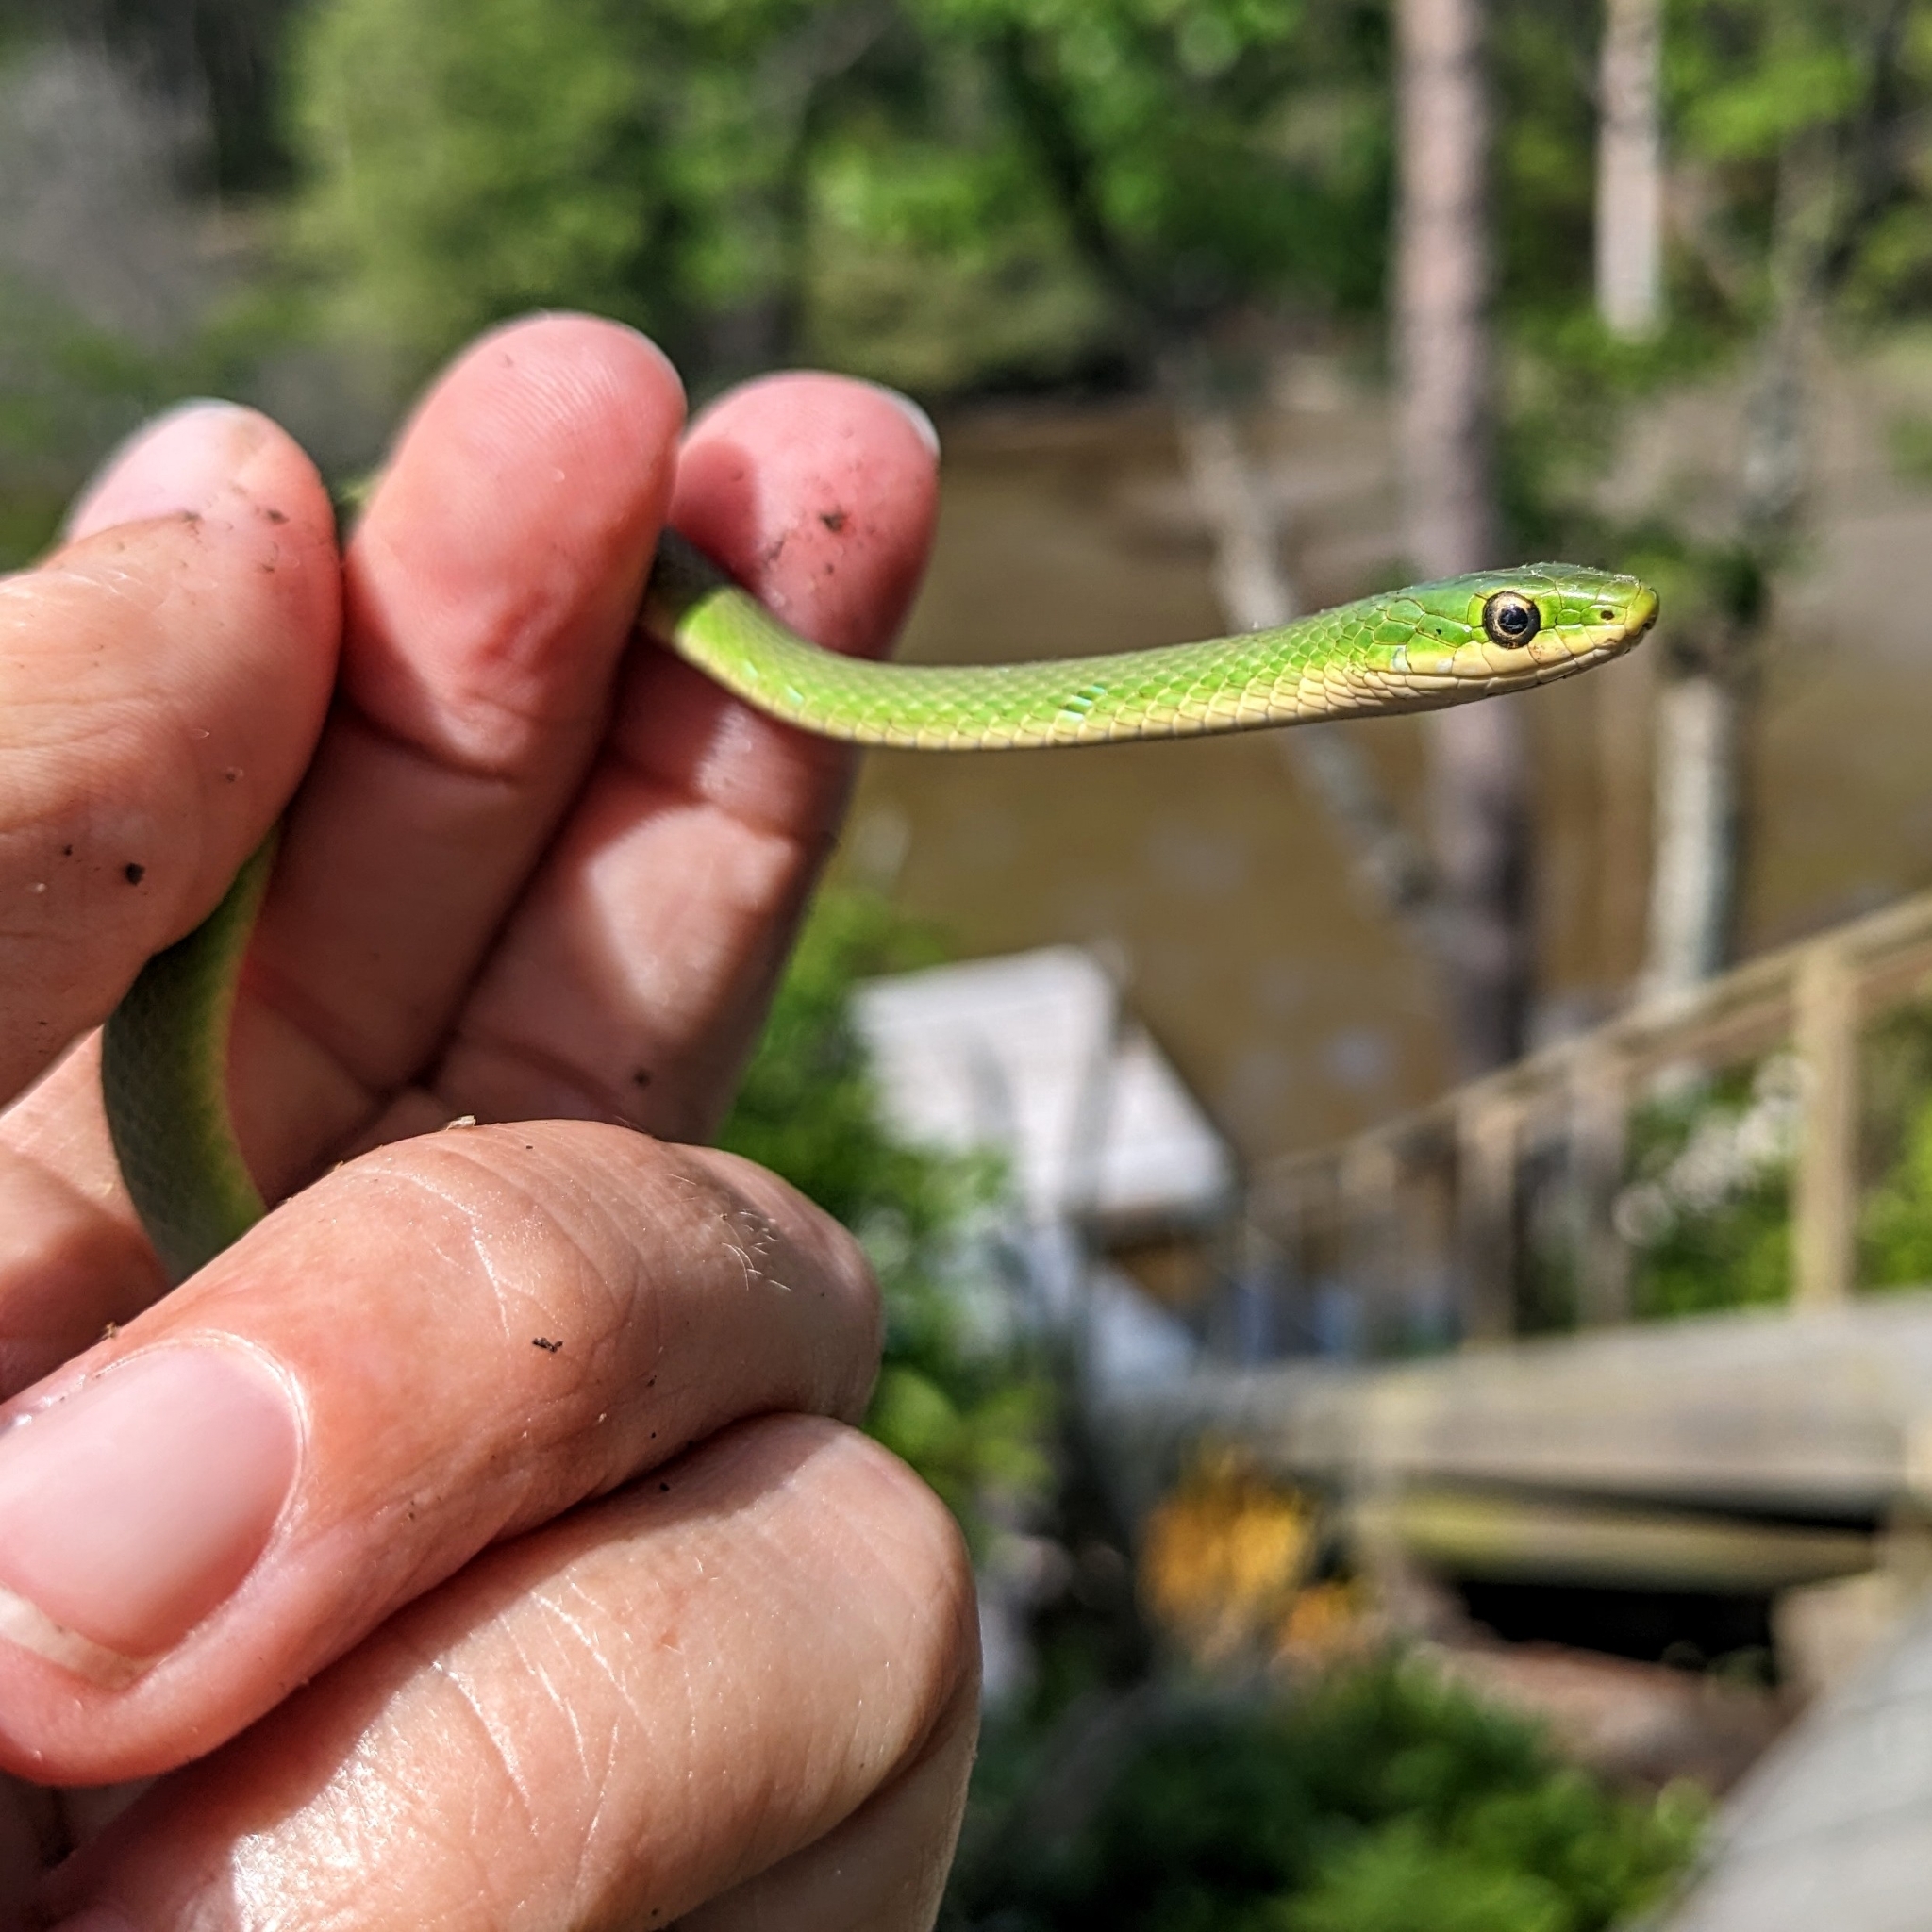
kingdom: Animalia
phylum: Chordata
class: Squamata
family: Colubridae
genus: Opheodrys
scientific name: Opheodrys aestivus
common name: Rough greensnake
